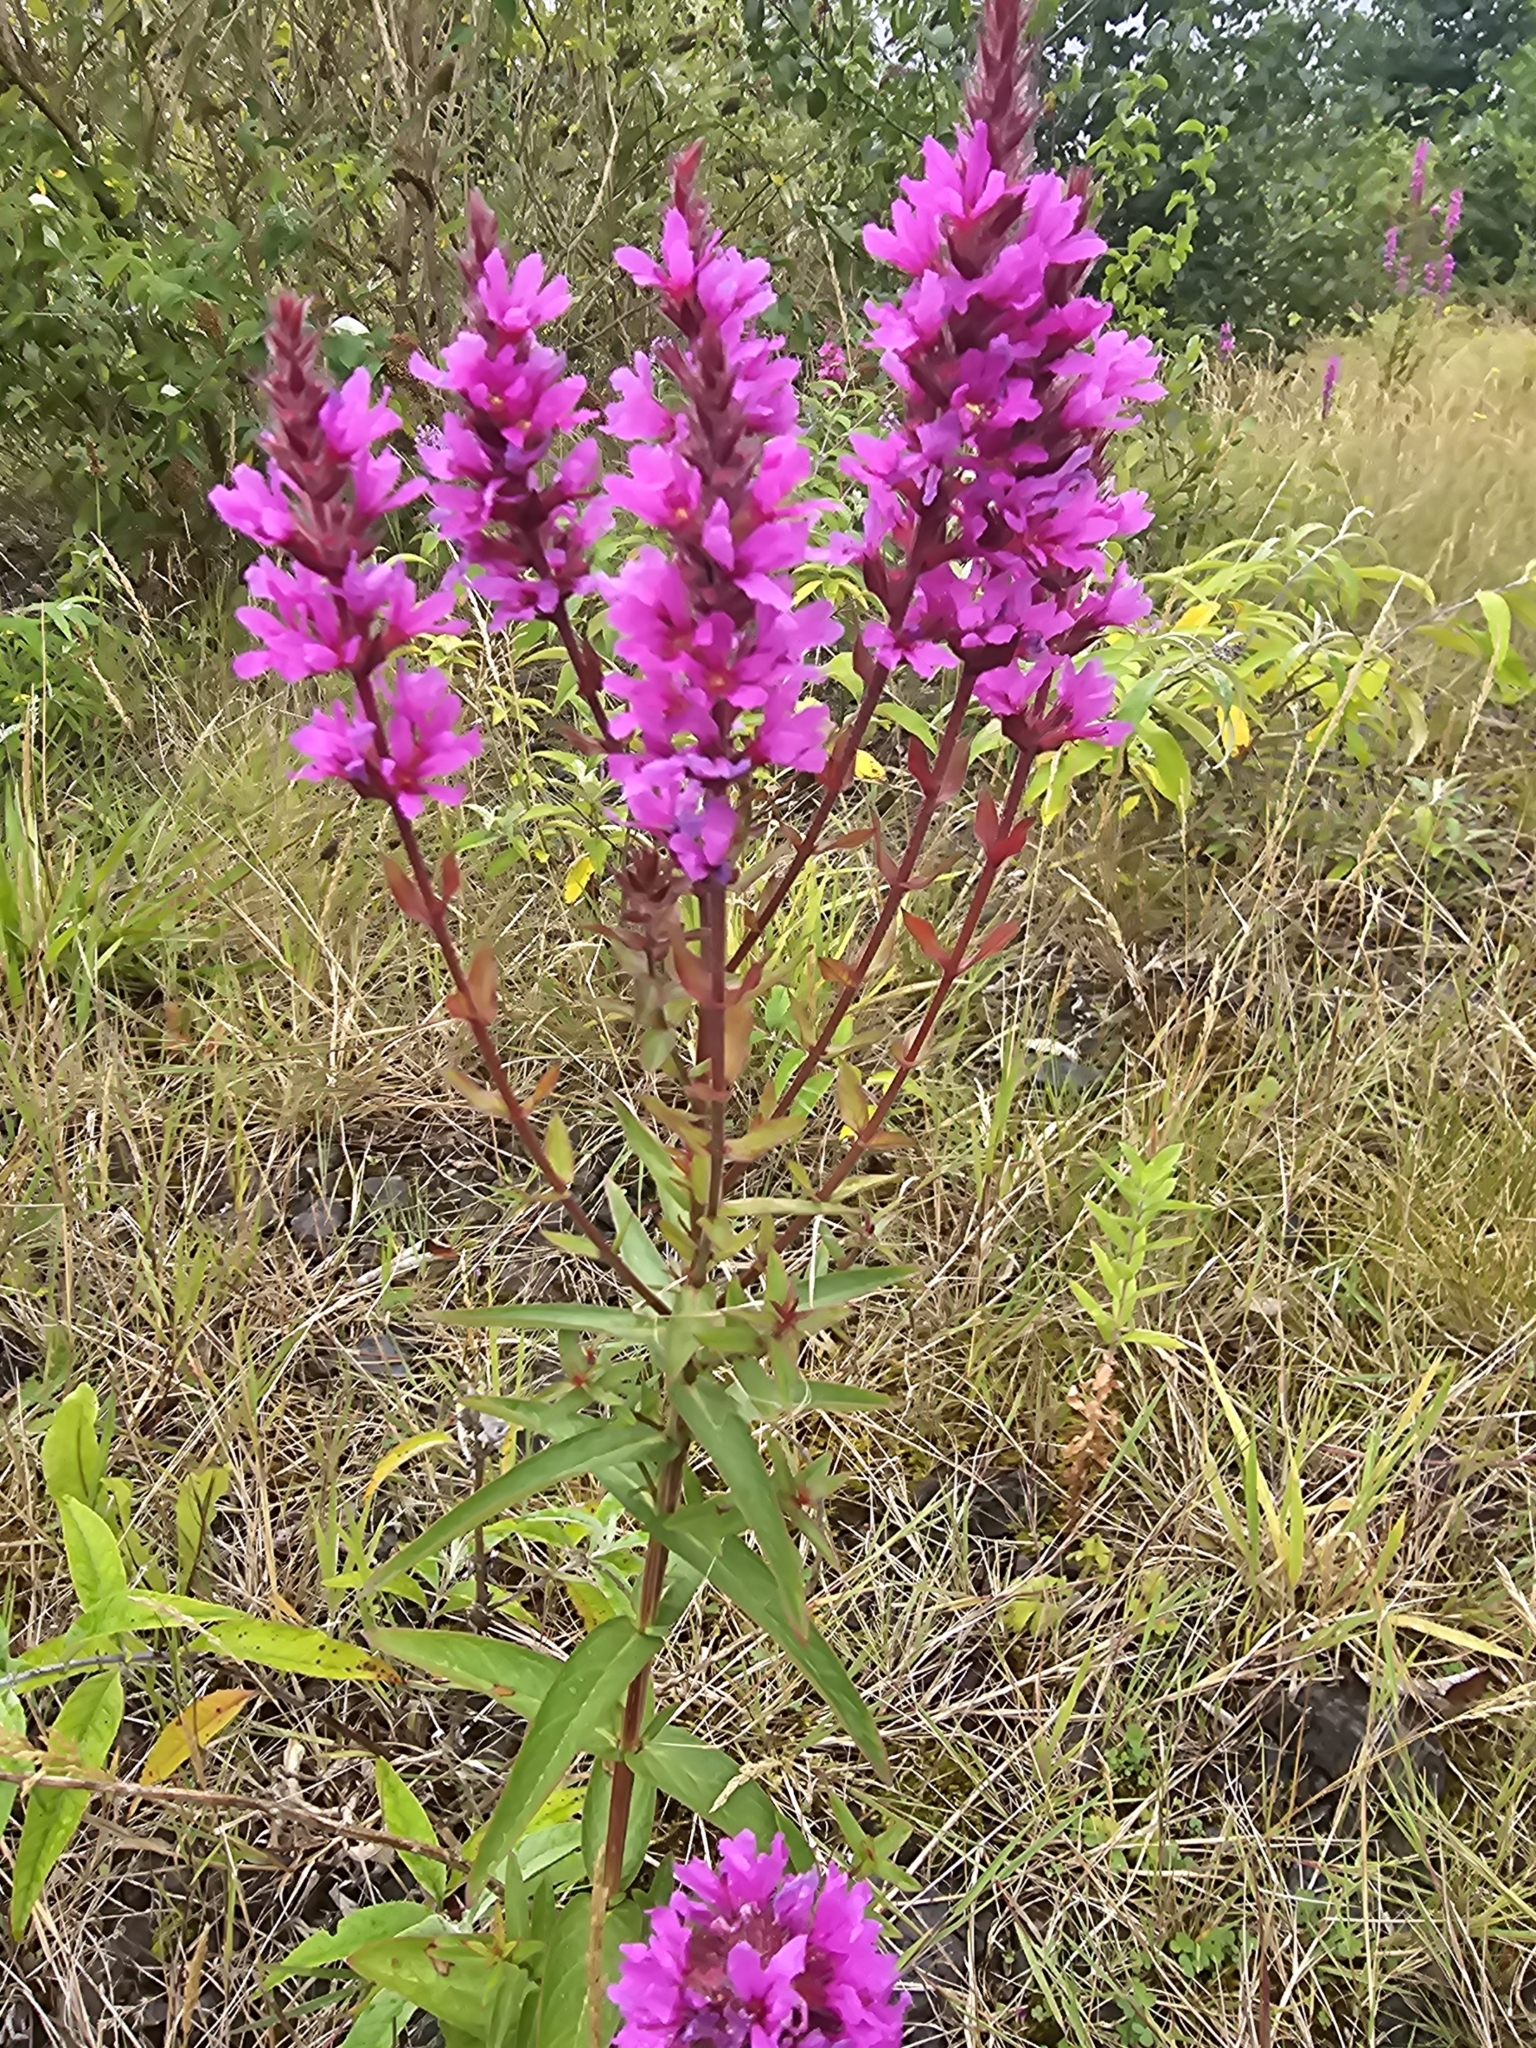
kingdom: Plantae
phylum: Tracheophyta
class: Magnoliopsida
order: Myrtales
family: Lythraceae
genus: Lythrum
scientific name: Lythrum salicaria
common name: Purple loosestrife
